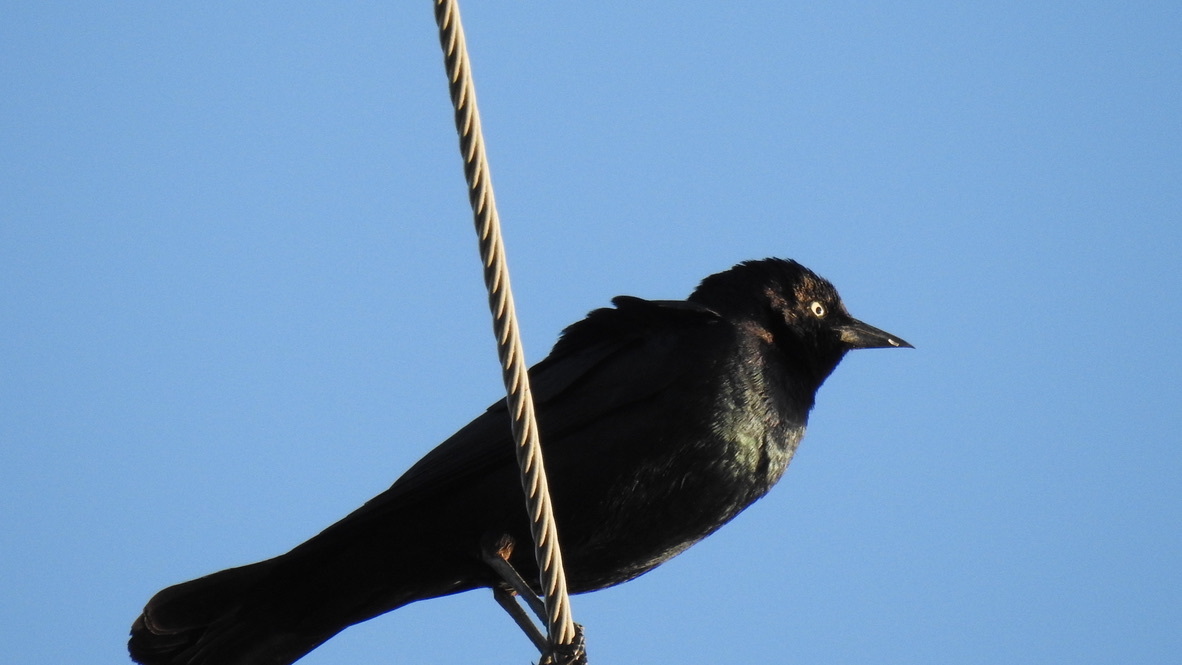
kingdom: Animalia
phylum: Chordata
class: Aves
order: Passeriformes
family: Icteridae
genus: Euphagus
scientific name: Euphagus cyanocephalus
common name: Brewer's blackbird
